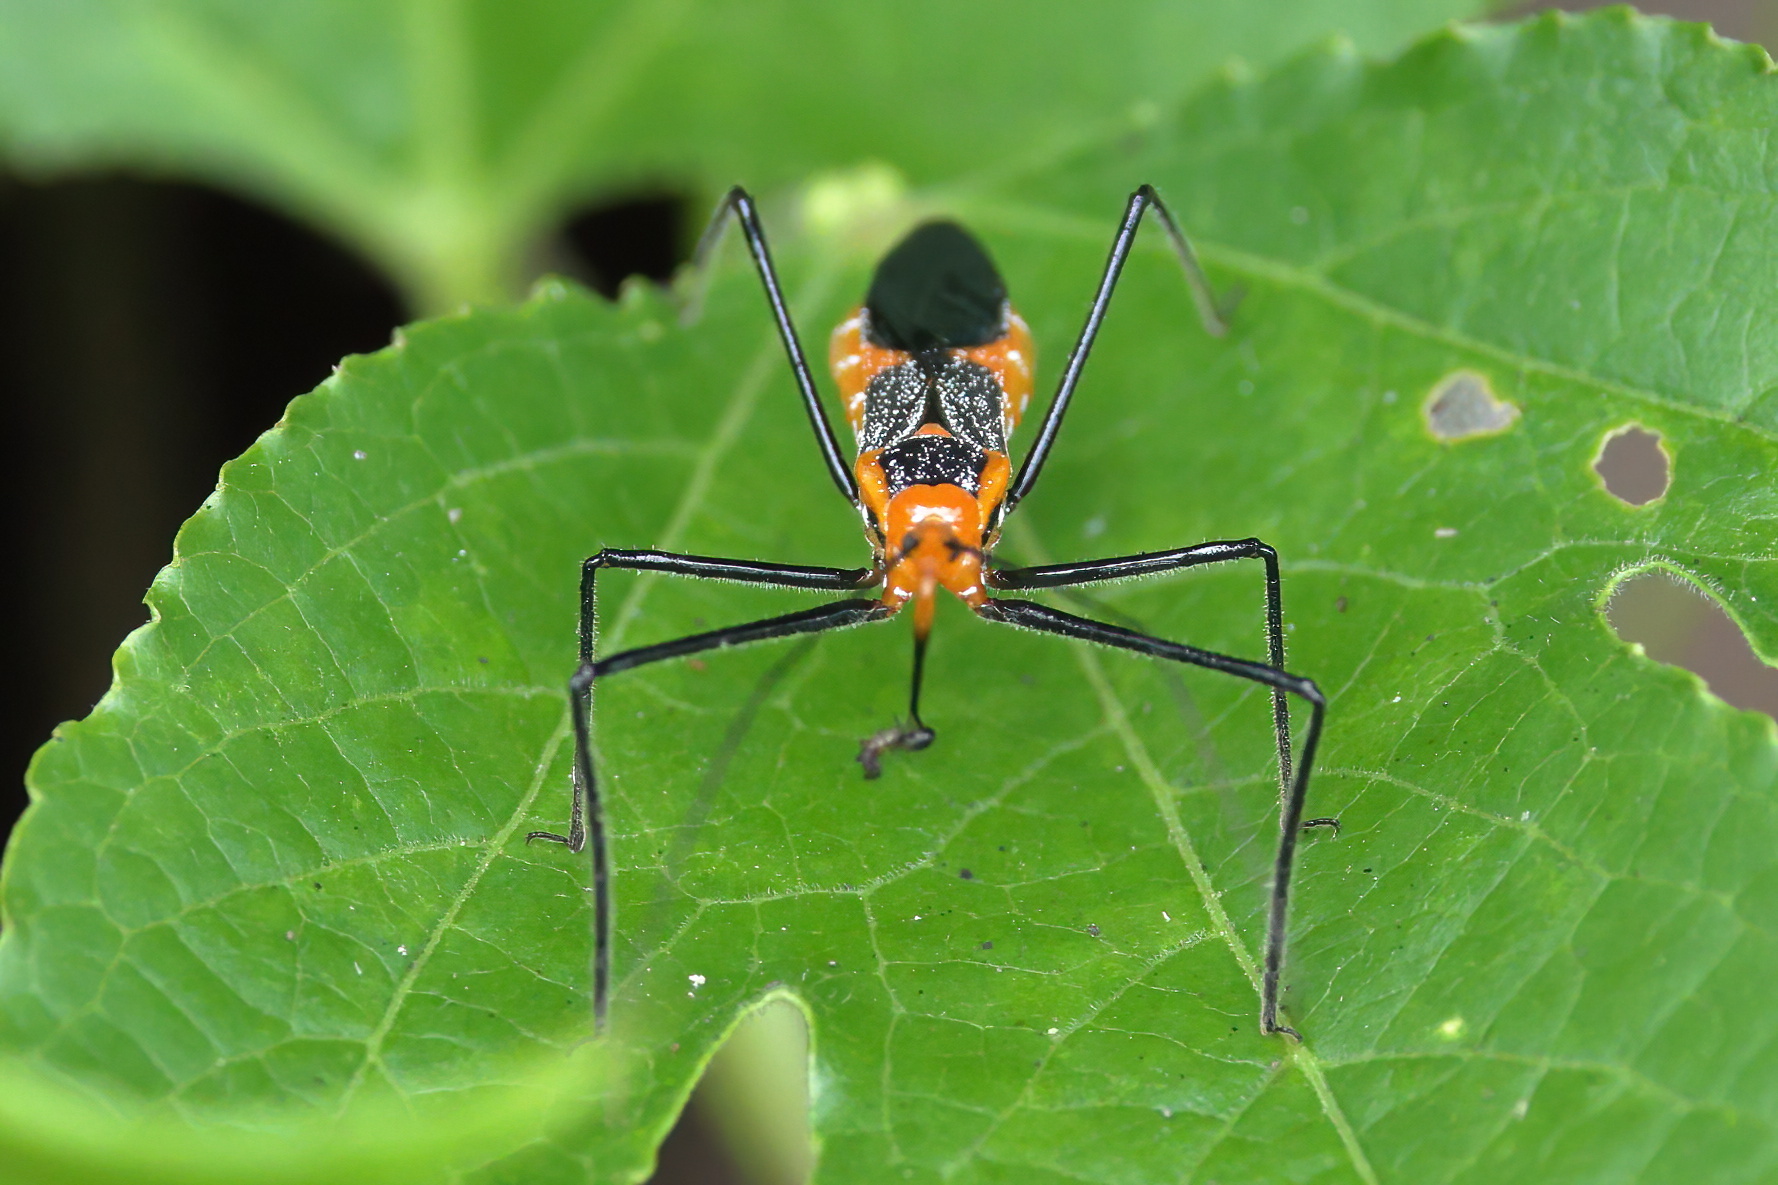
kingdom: Animalia
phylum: Arthropoda
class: Insecta
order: Hemiptera
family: Reduviidae
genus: Zelus
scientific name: Zelus longipes
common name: Milkweed assassin bug
